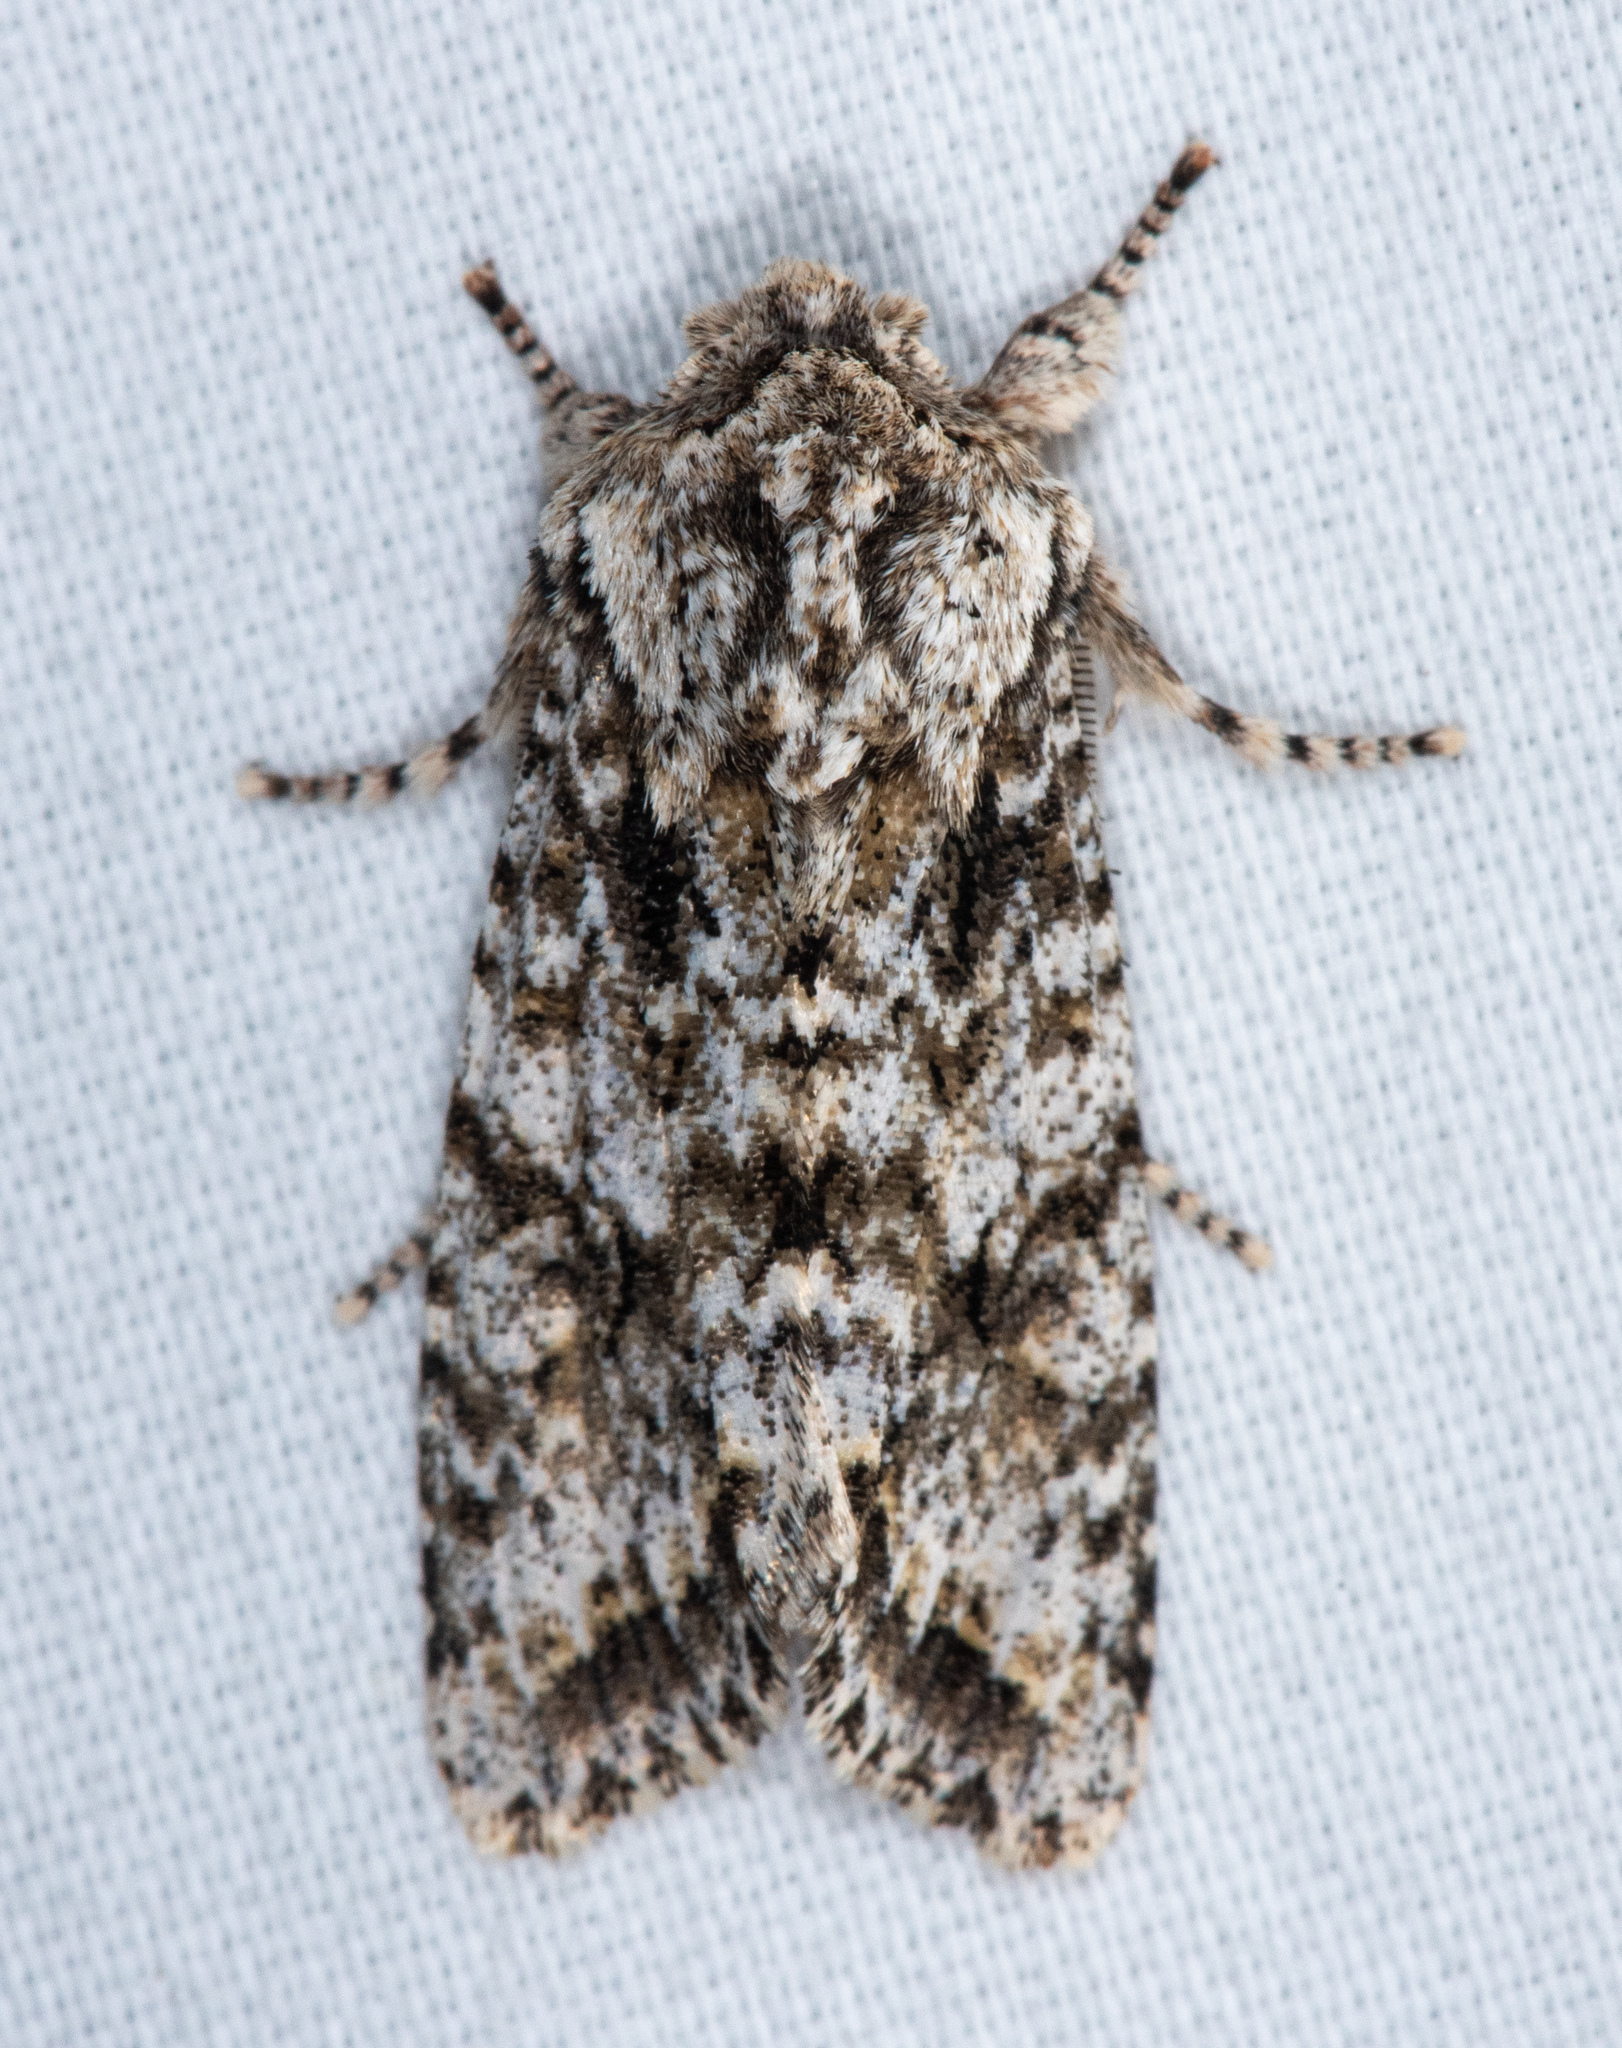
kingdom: Animalia
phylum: Arthropoda
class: Insecta
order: Lepidoptera
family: Noctuidae
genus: Egira
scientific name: Egira cognata
